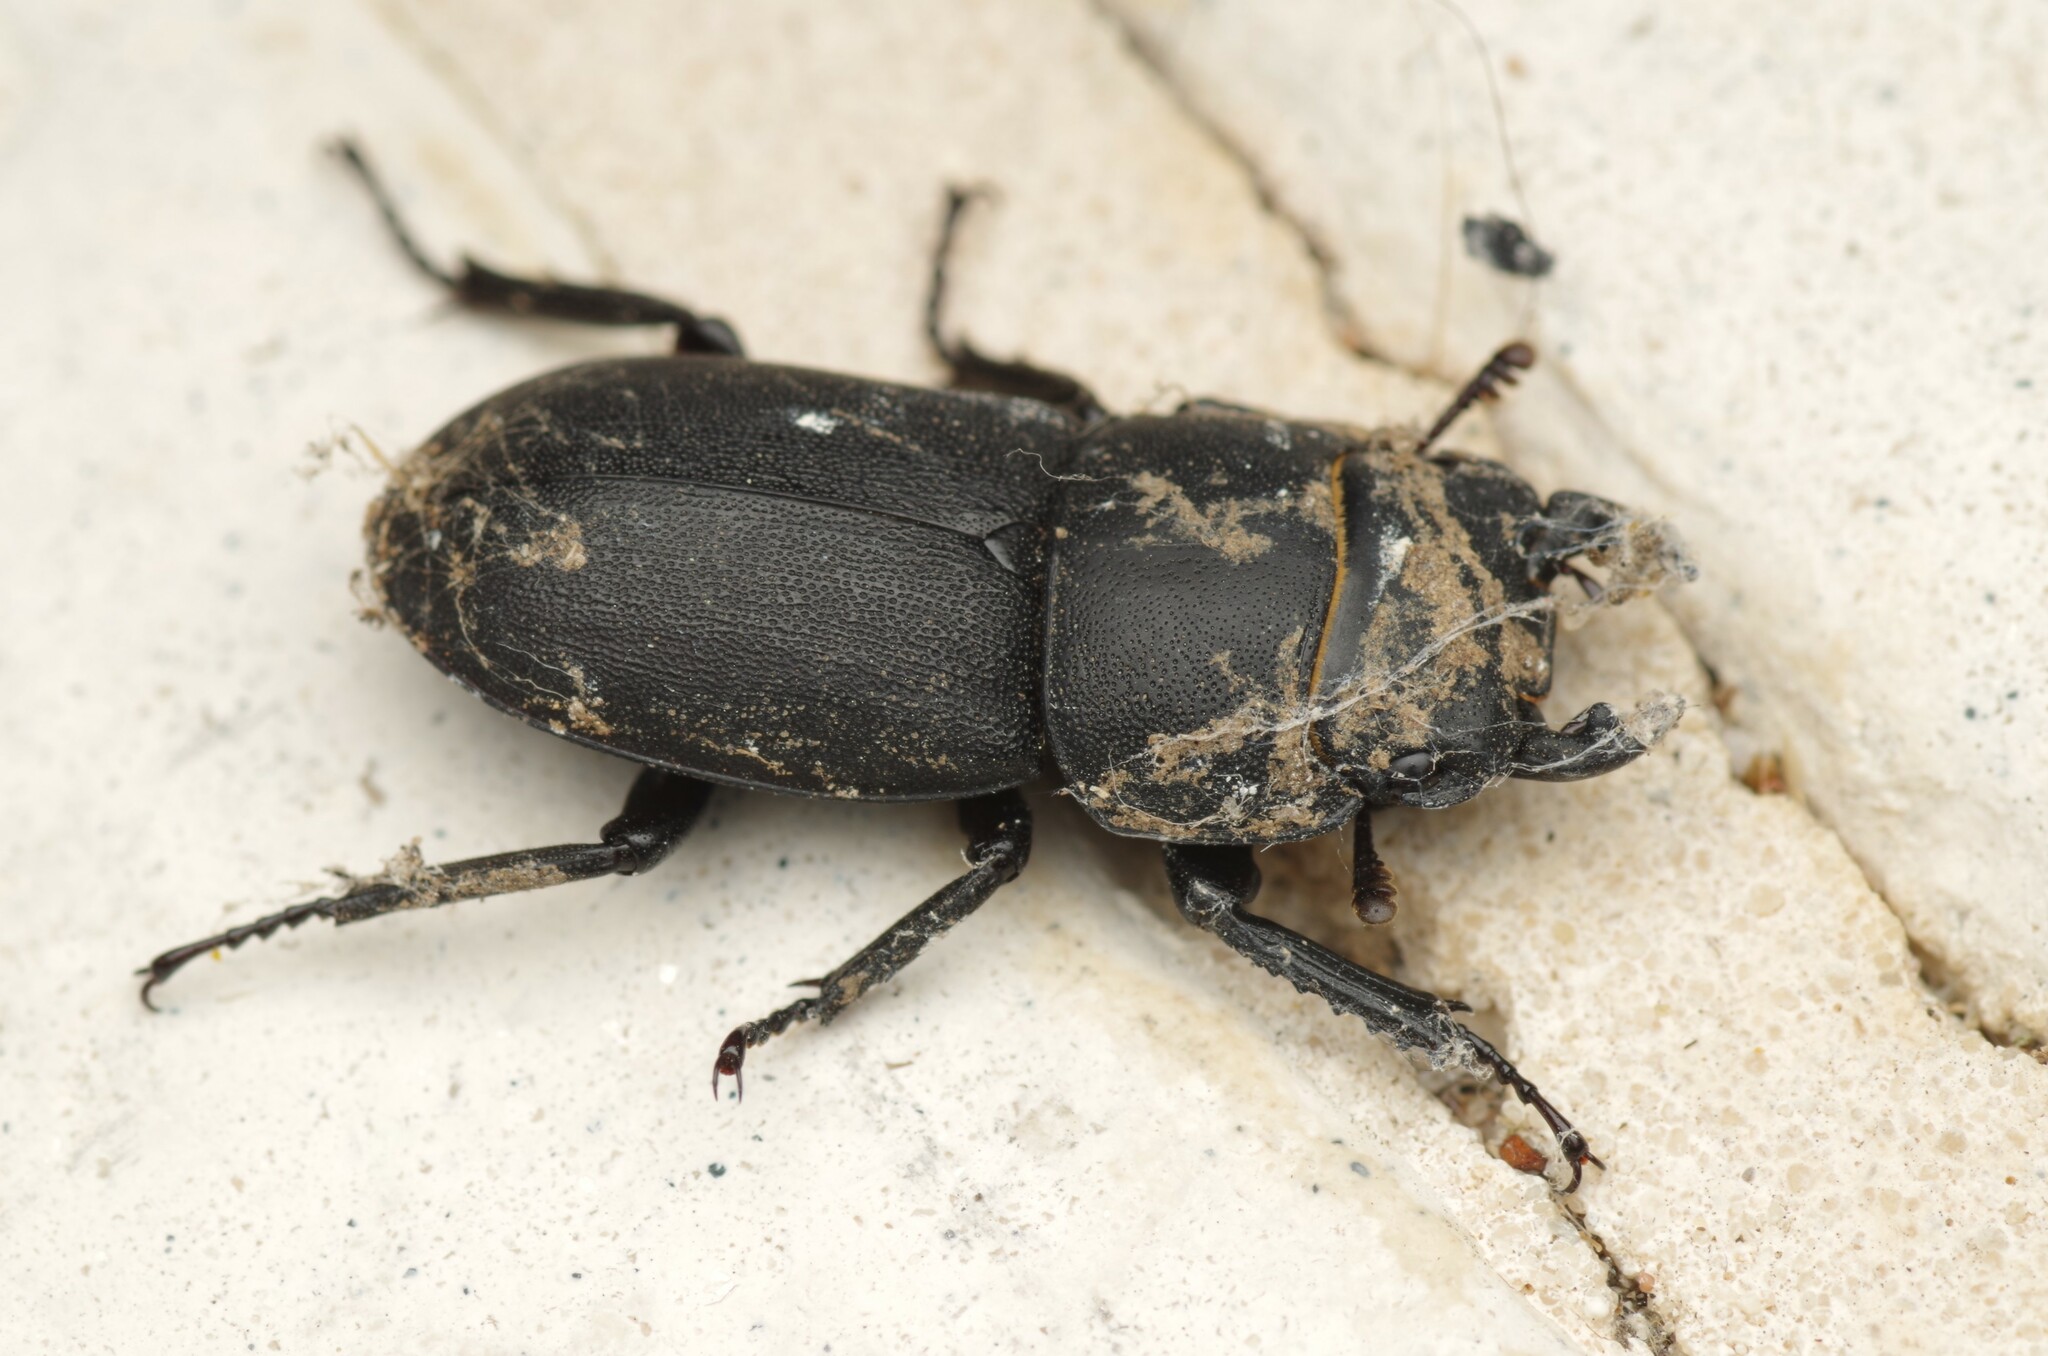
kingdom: Animalia
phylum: Arthropoda
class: Insecta
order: Coleoptera
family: Lucanidae
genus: Dorcus
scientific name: Dorcus parallelipipedus
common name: Lesser stag beetle
